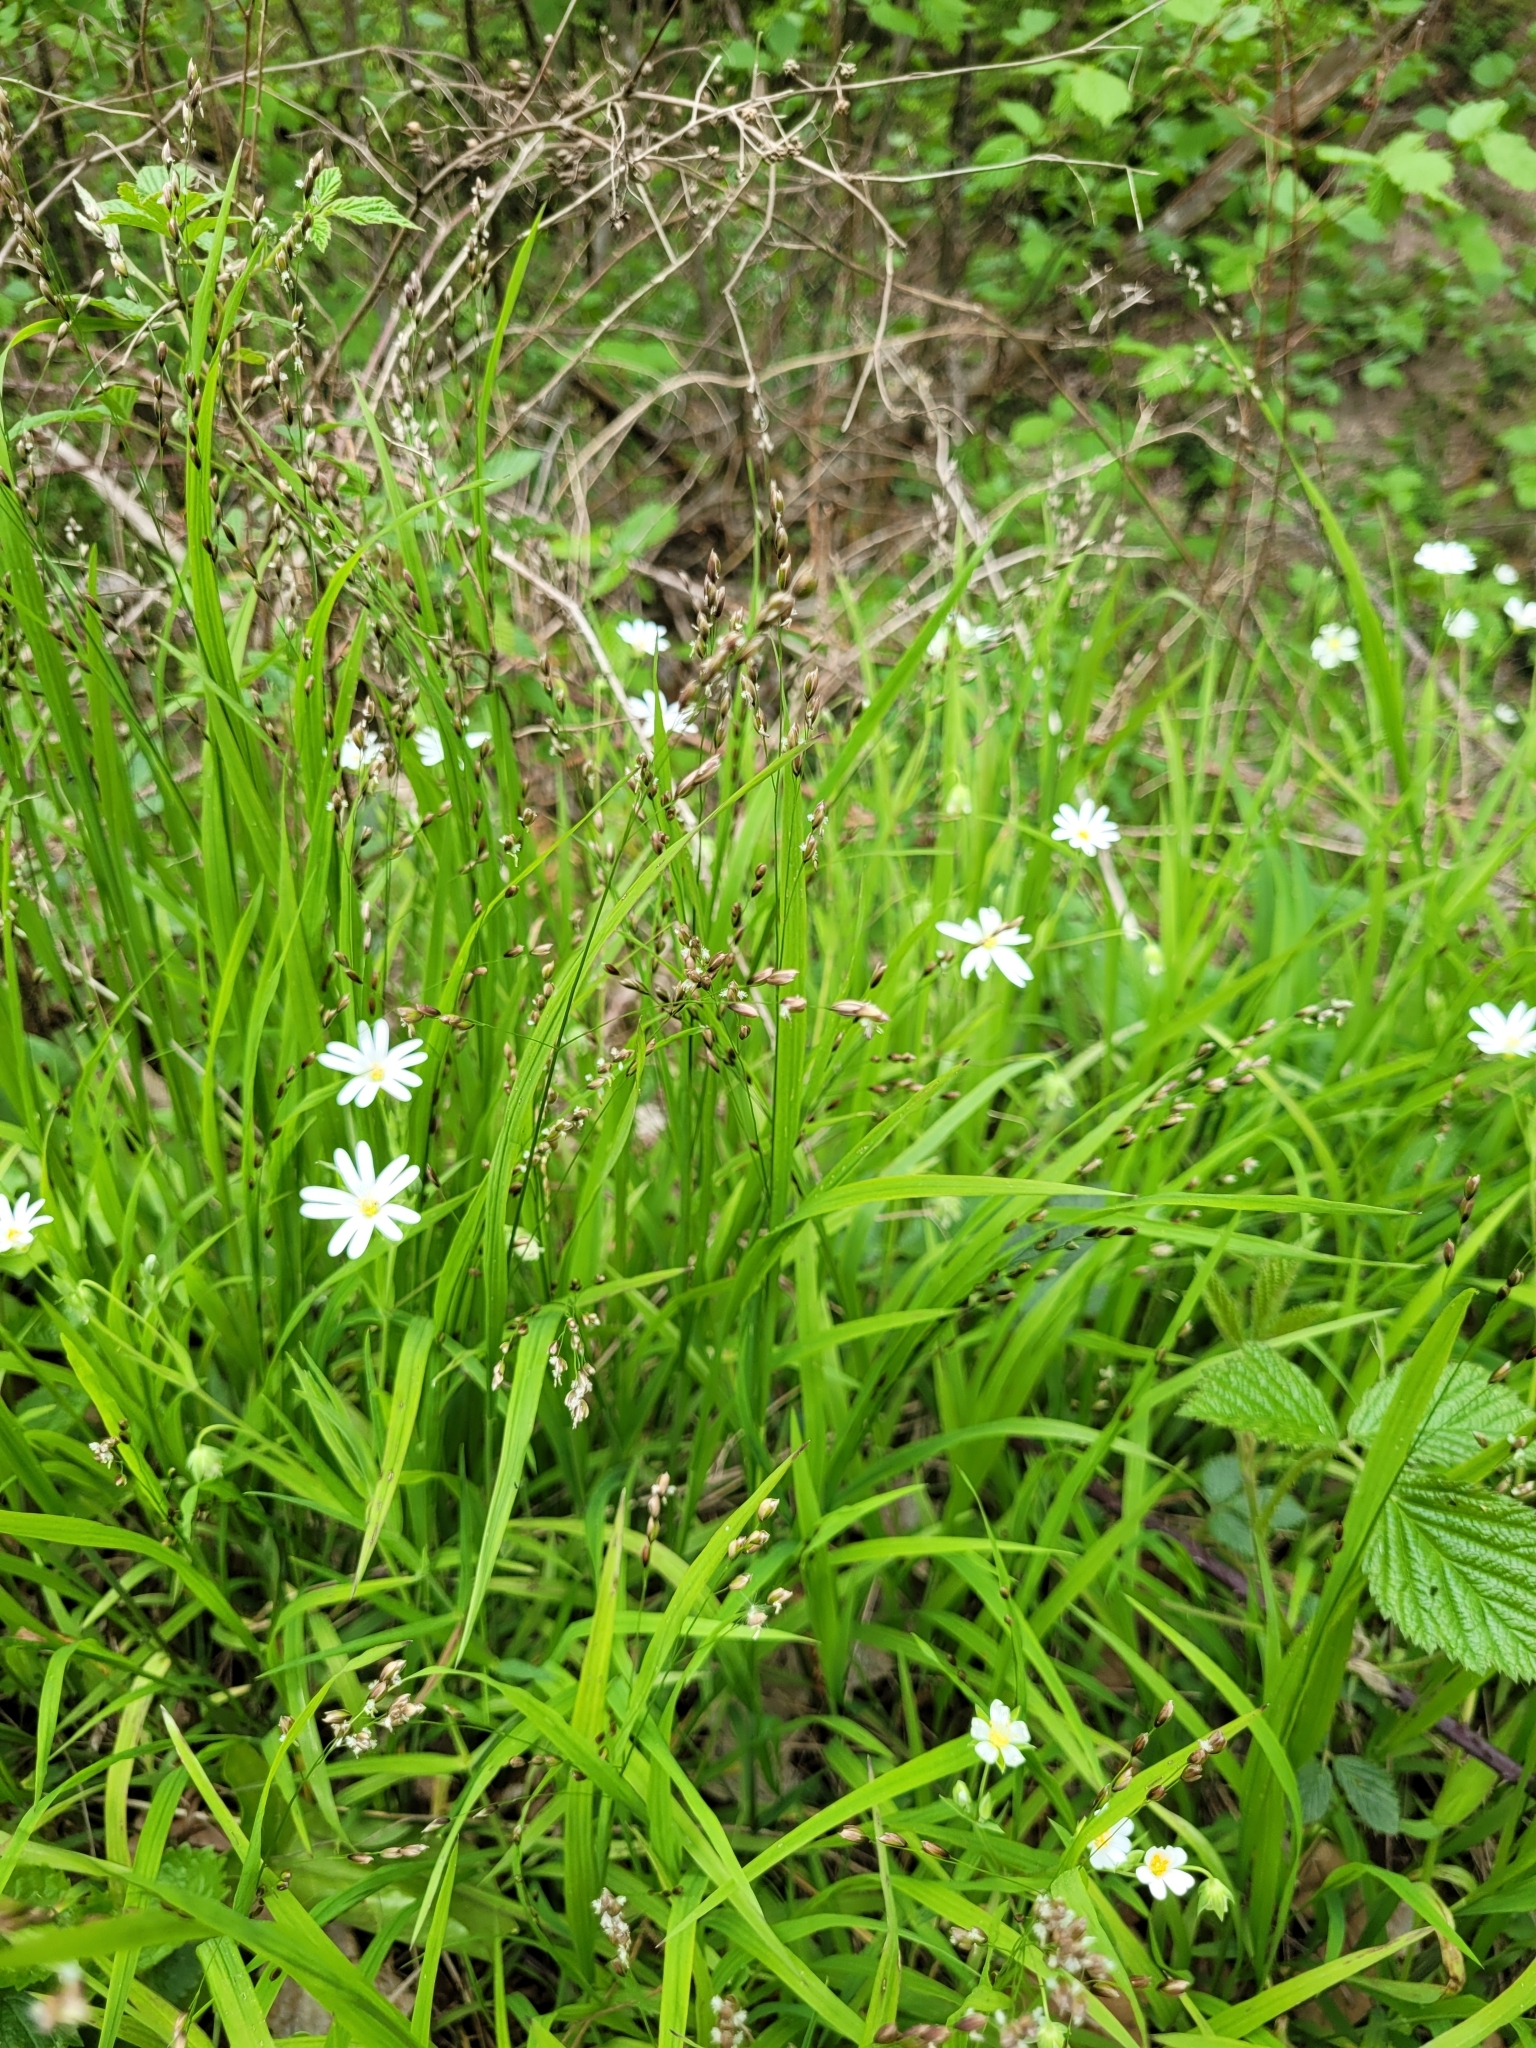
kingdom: Plantae
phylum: Tracheophyta
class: Liliopsida
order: Poales
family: Poaceae
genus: Melica
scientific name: Melica uniflora
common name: Wood melick
